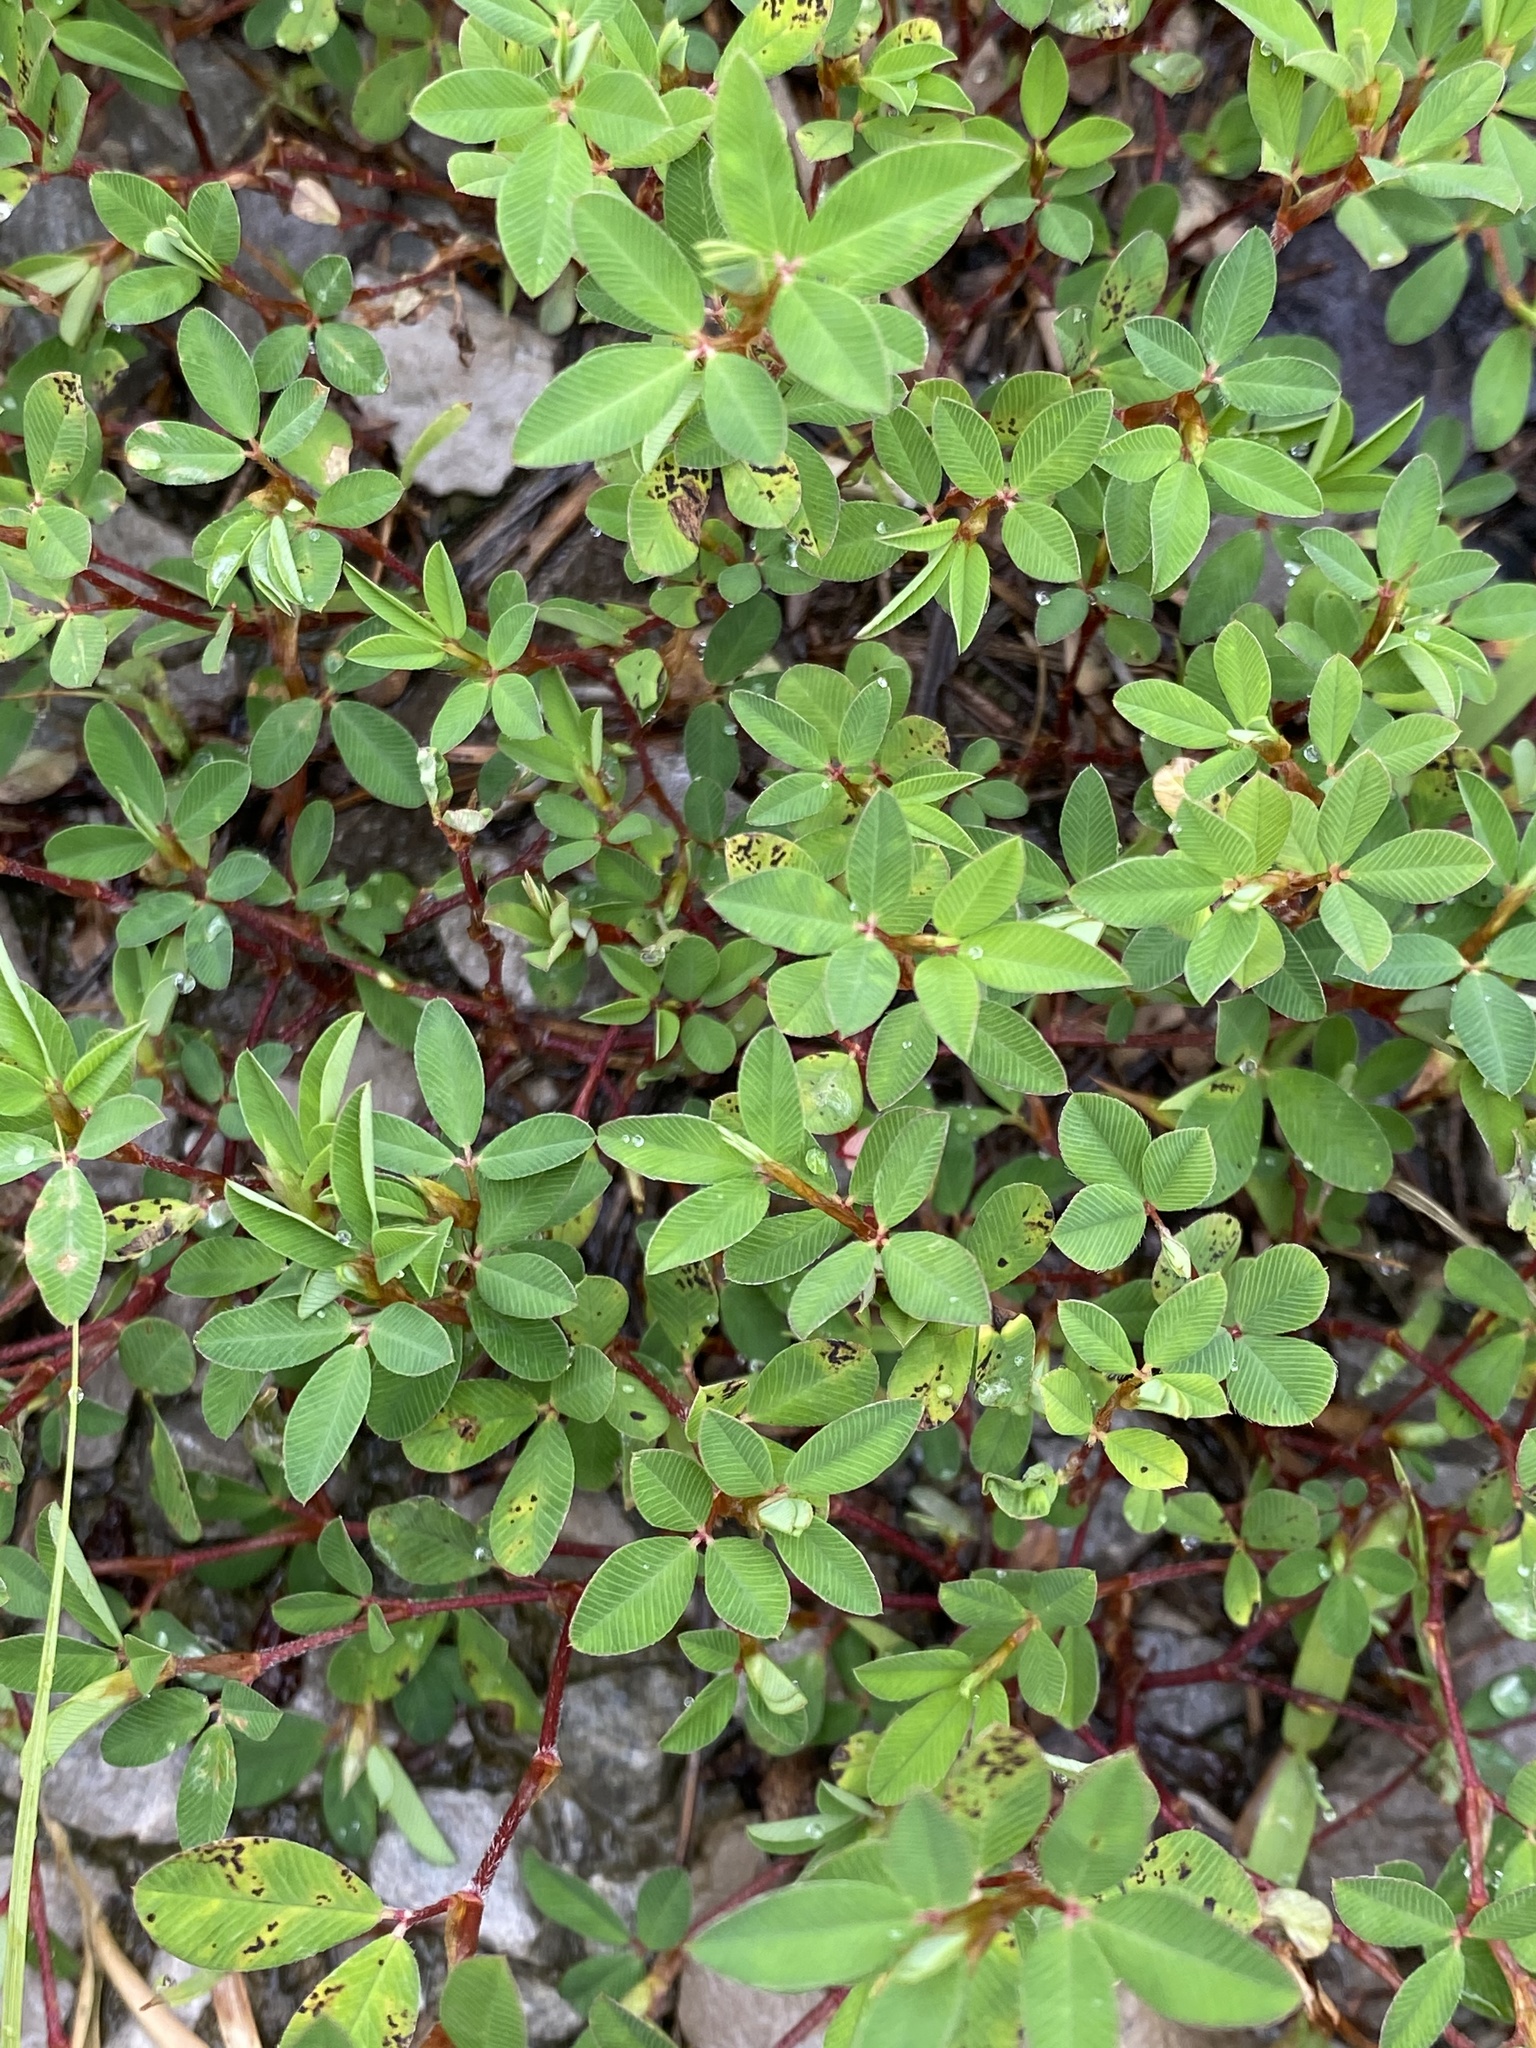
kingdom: Plantae
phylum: Tracheophyta
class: Magnoliopsida
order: Fabales
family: Fabaceae
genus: Kummerowia
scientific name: Kummerowia striata
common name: Japanese clover
